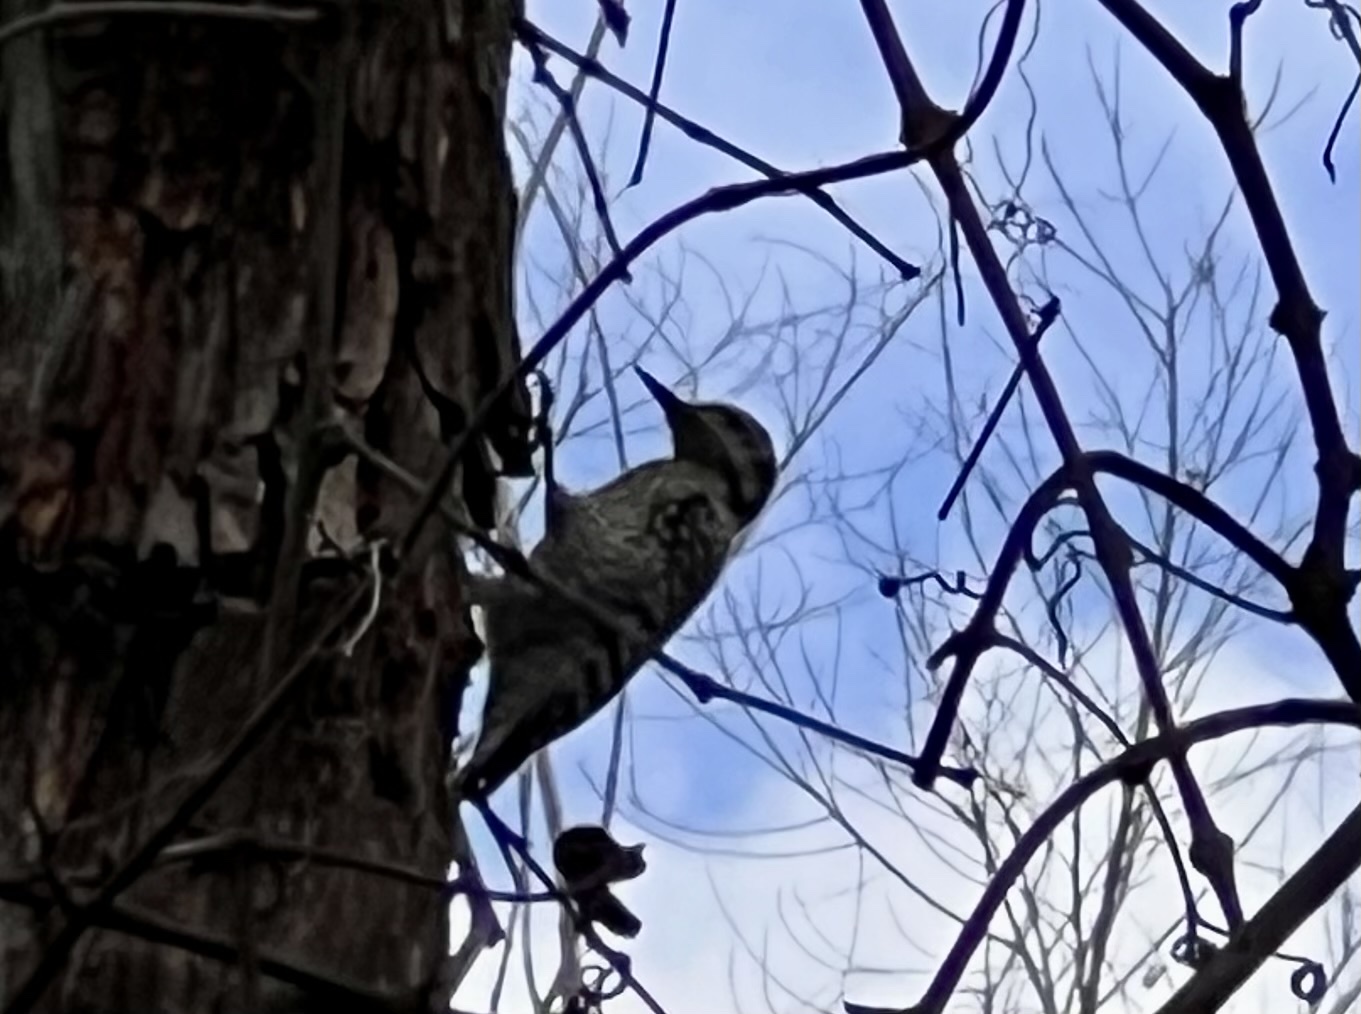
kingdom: Animalia
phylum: Chordata
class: Aves
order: Piciformes
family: Picidae
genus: Dryobates
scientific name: Dryobates scalaris
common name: Ladder-backed woodpecker
